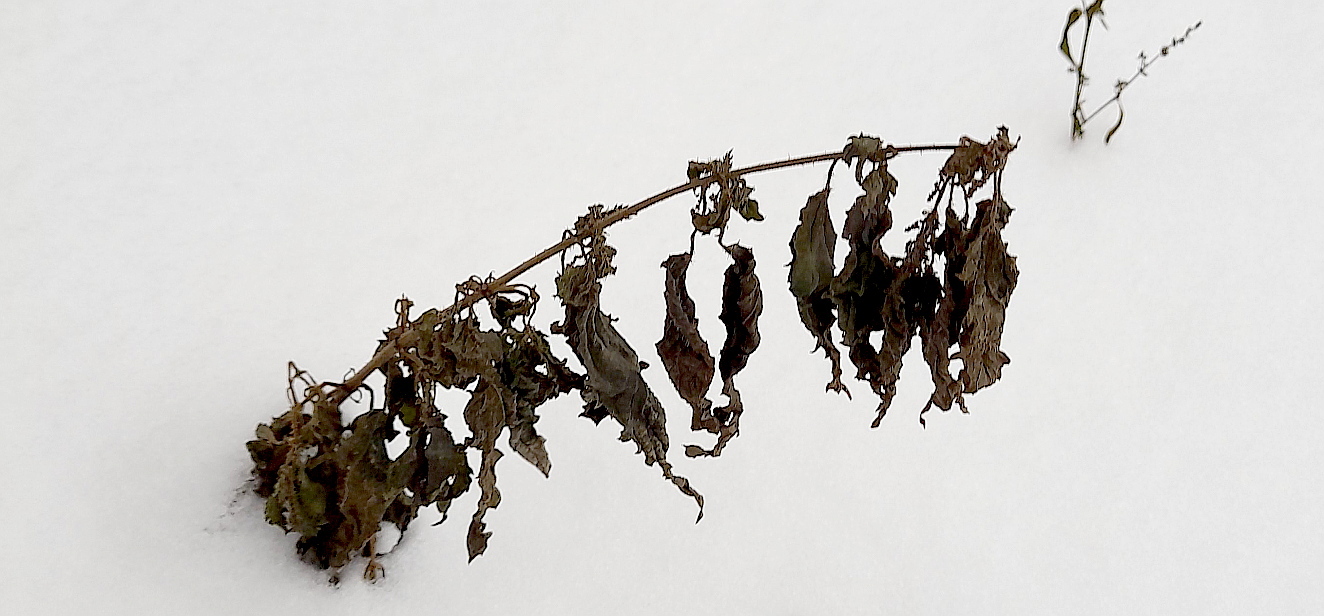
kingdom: Plantae
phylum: Tracheophyta
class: Magnoliopsida
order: Rosales
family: Urticaceae
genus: Urtica
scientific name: Urtica dioica
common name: Common nettle
